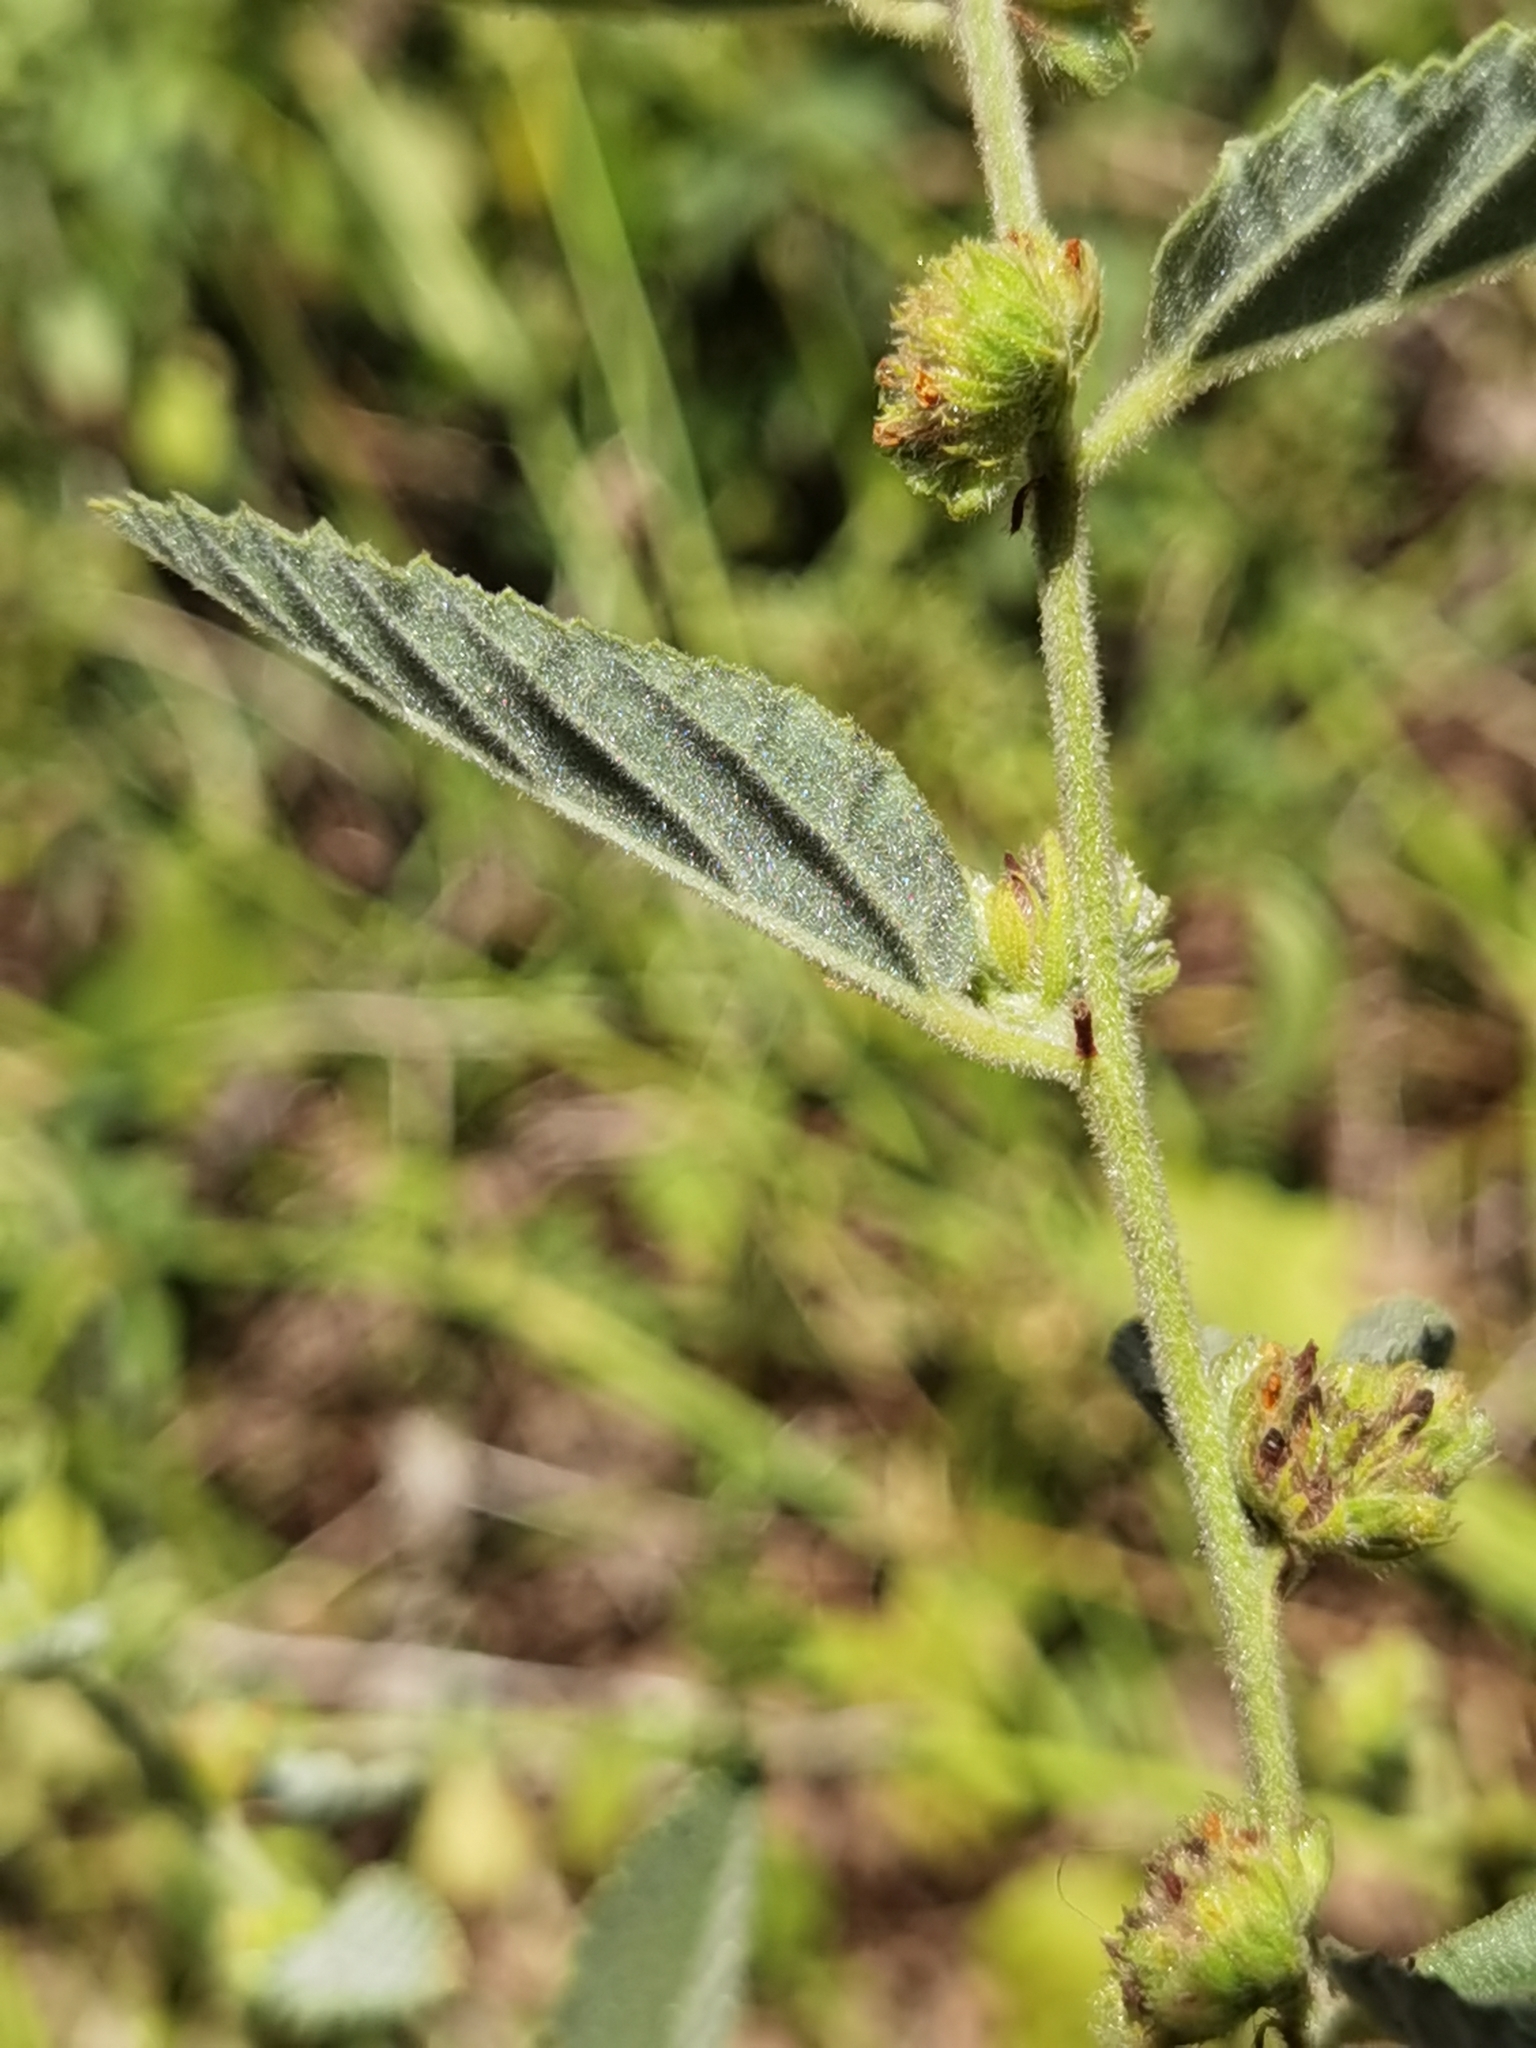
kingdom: Plantae
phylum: Tracheophyta
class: Magnoliopsida
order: Malvales
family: Malvaceae
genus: Waltheria
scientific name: Waltheria indica
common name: Leather-coat
